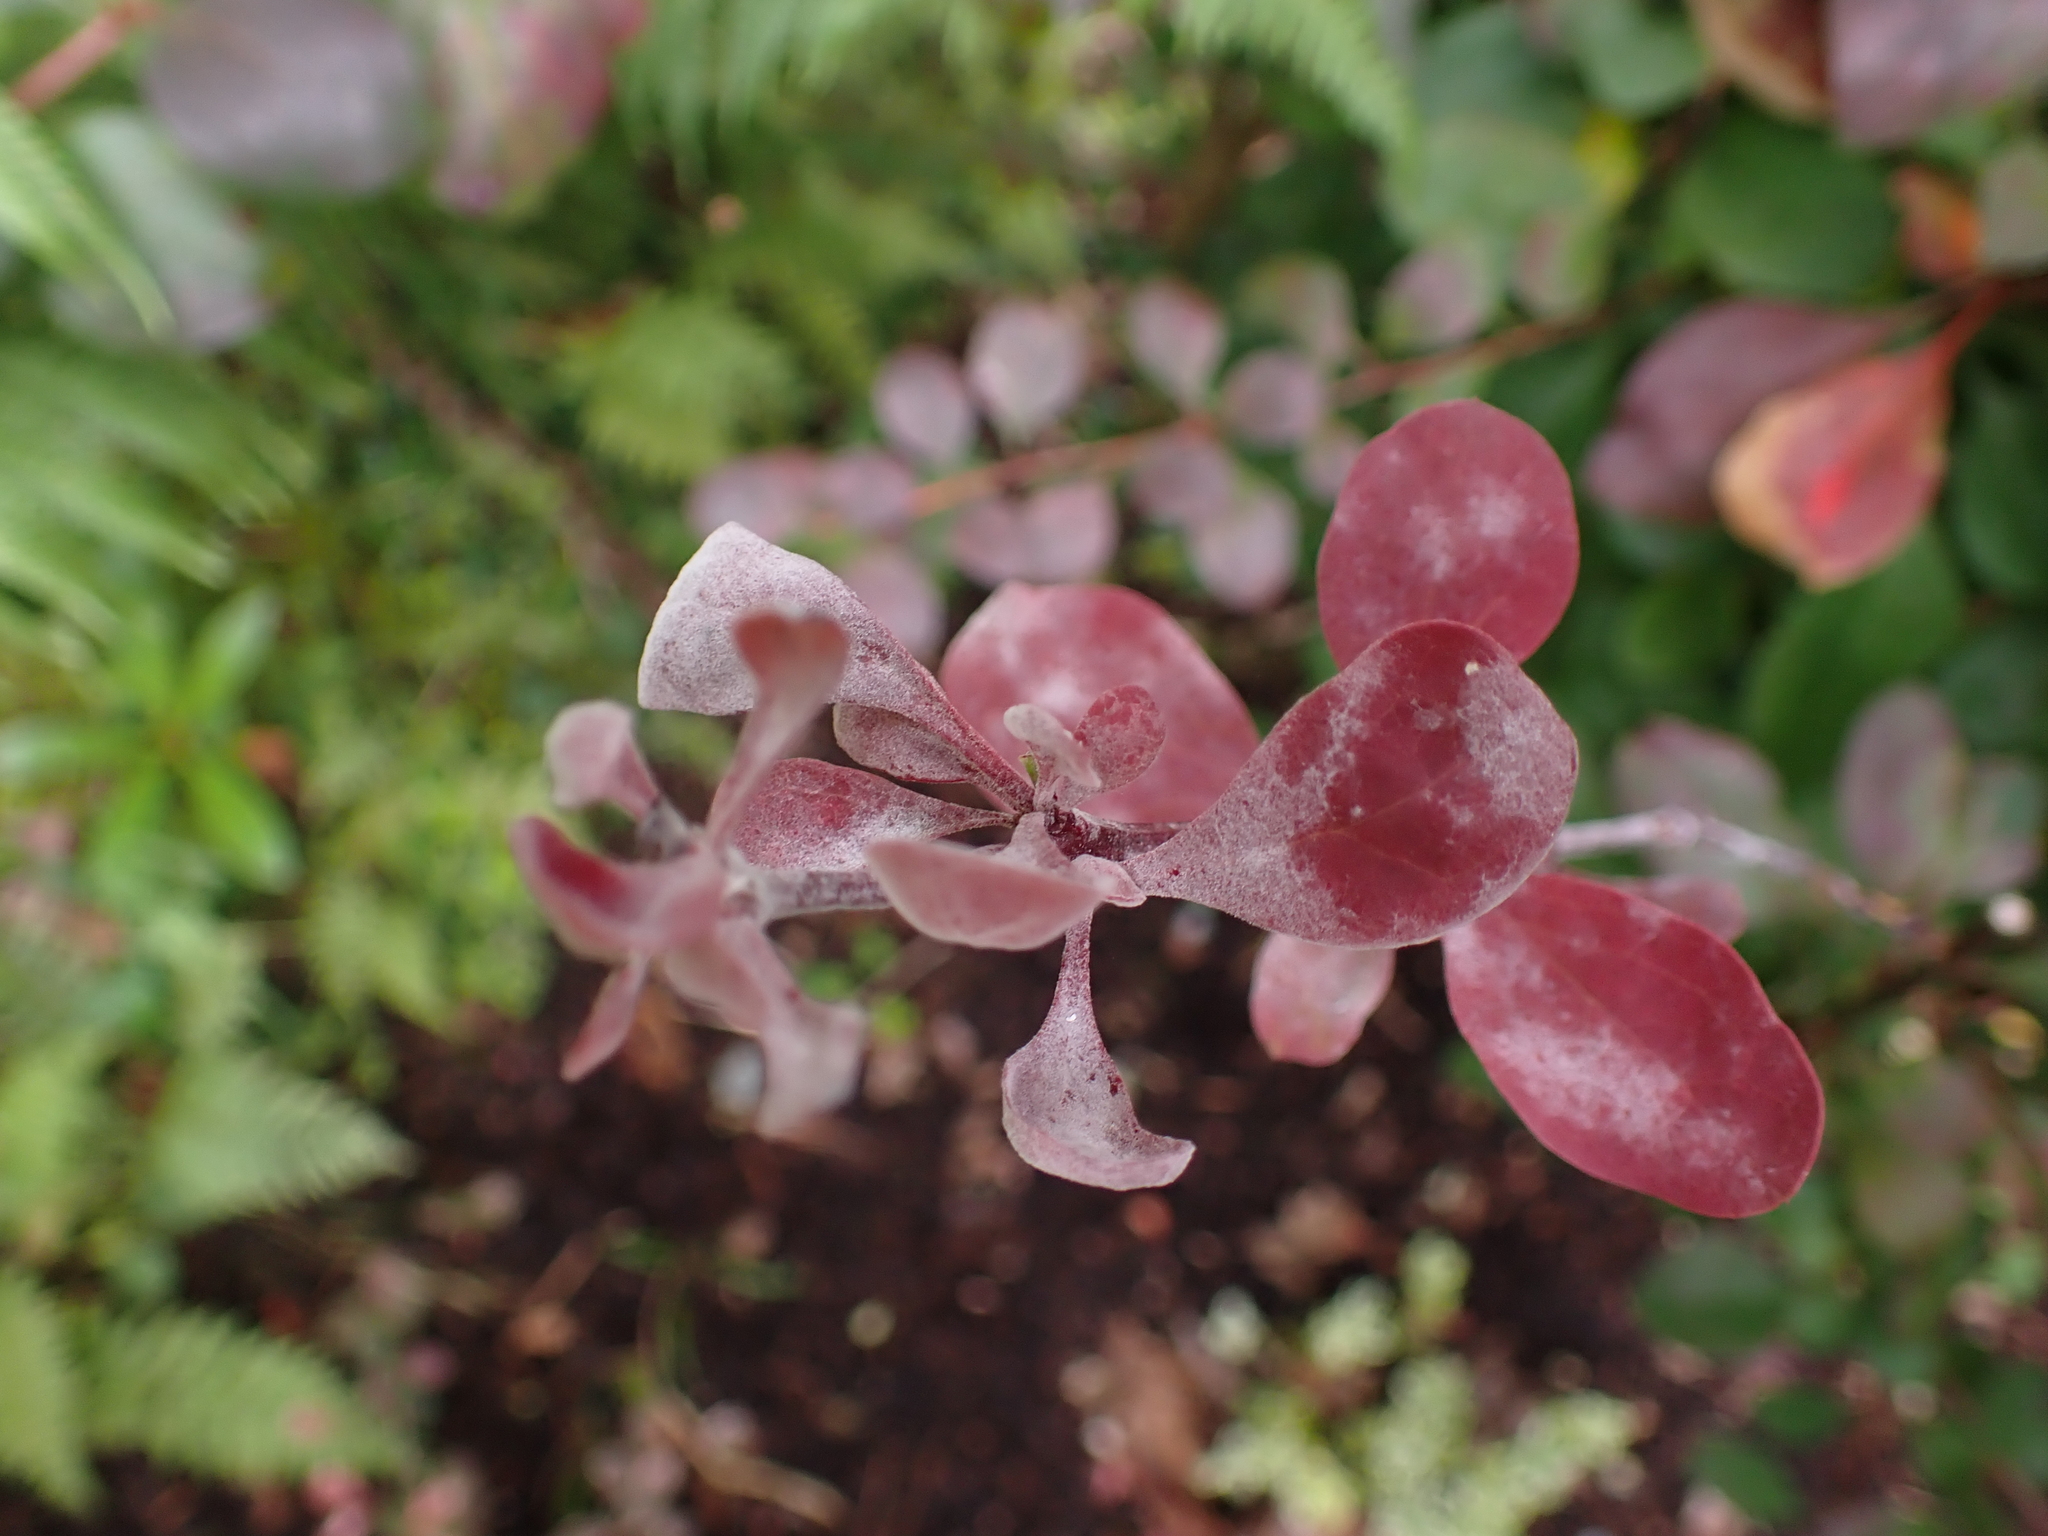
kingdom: Fungi
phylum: Ascomycota
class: Leotiomycetes
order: Helotiales
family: Erysiphaceae
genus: Erysiphe
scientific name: Erysiphe berberidis
